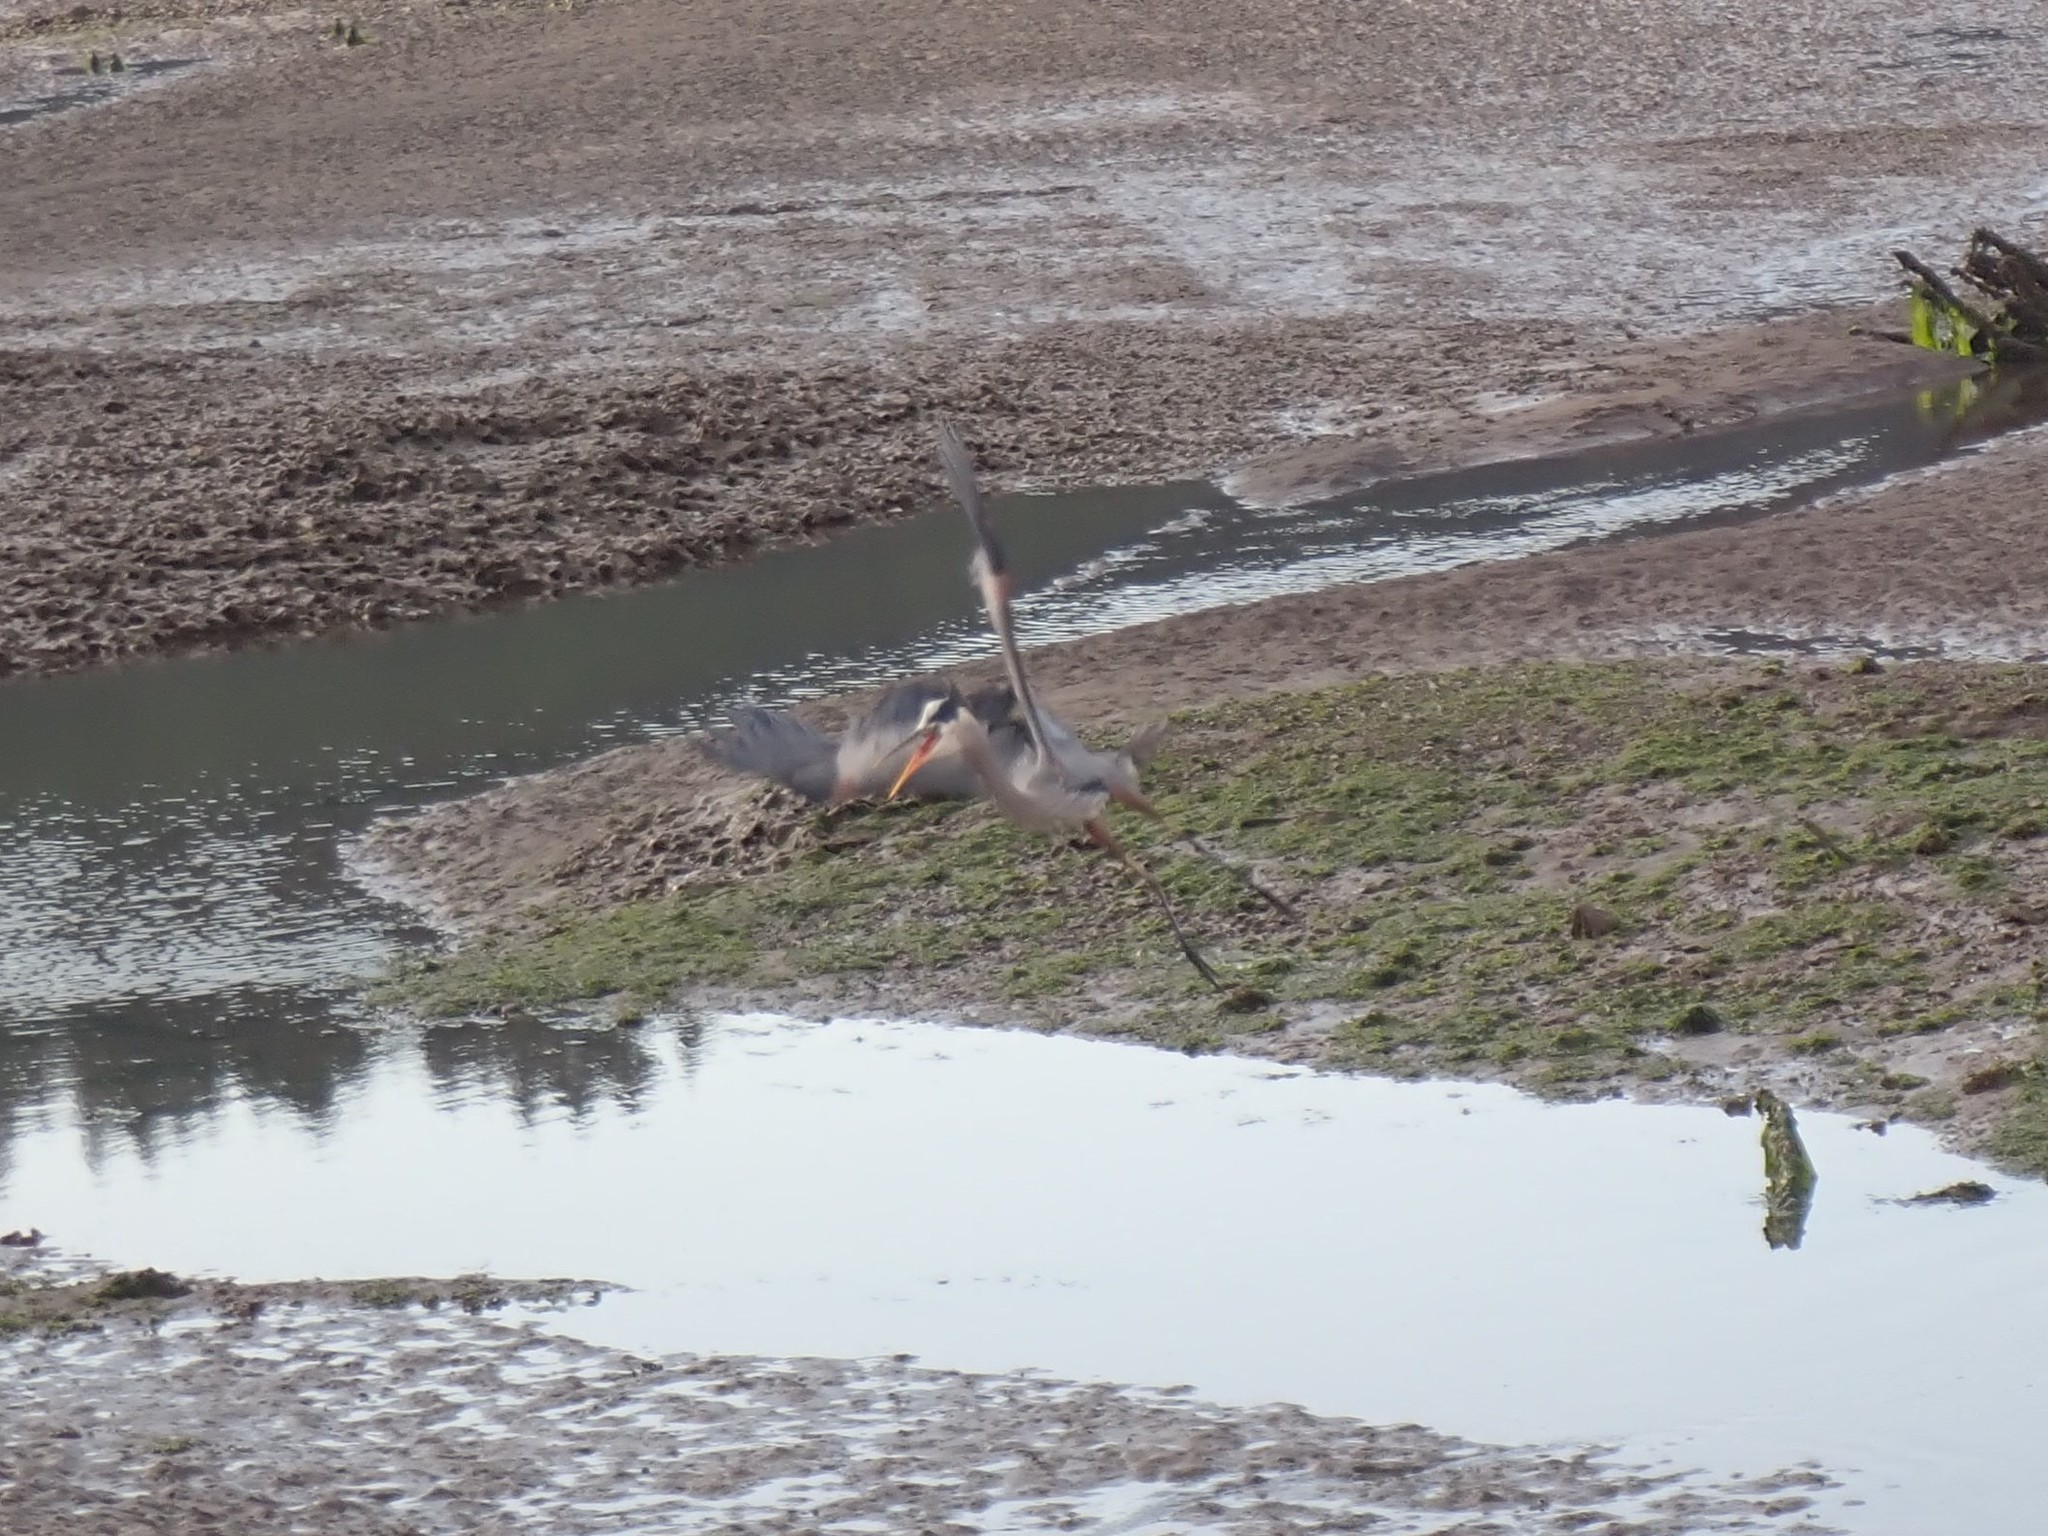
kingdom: Animalia
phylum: Chordata
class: Aves
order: Pelecaniformes
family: Ardeidae
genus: Ardea
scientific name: Ardea herodias
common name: Great blue heron
